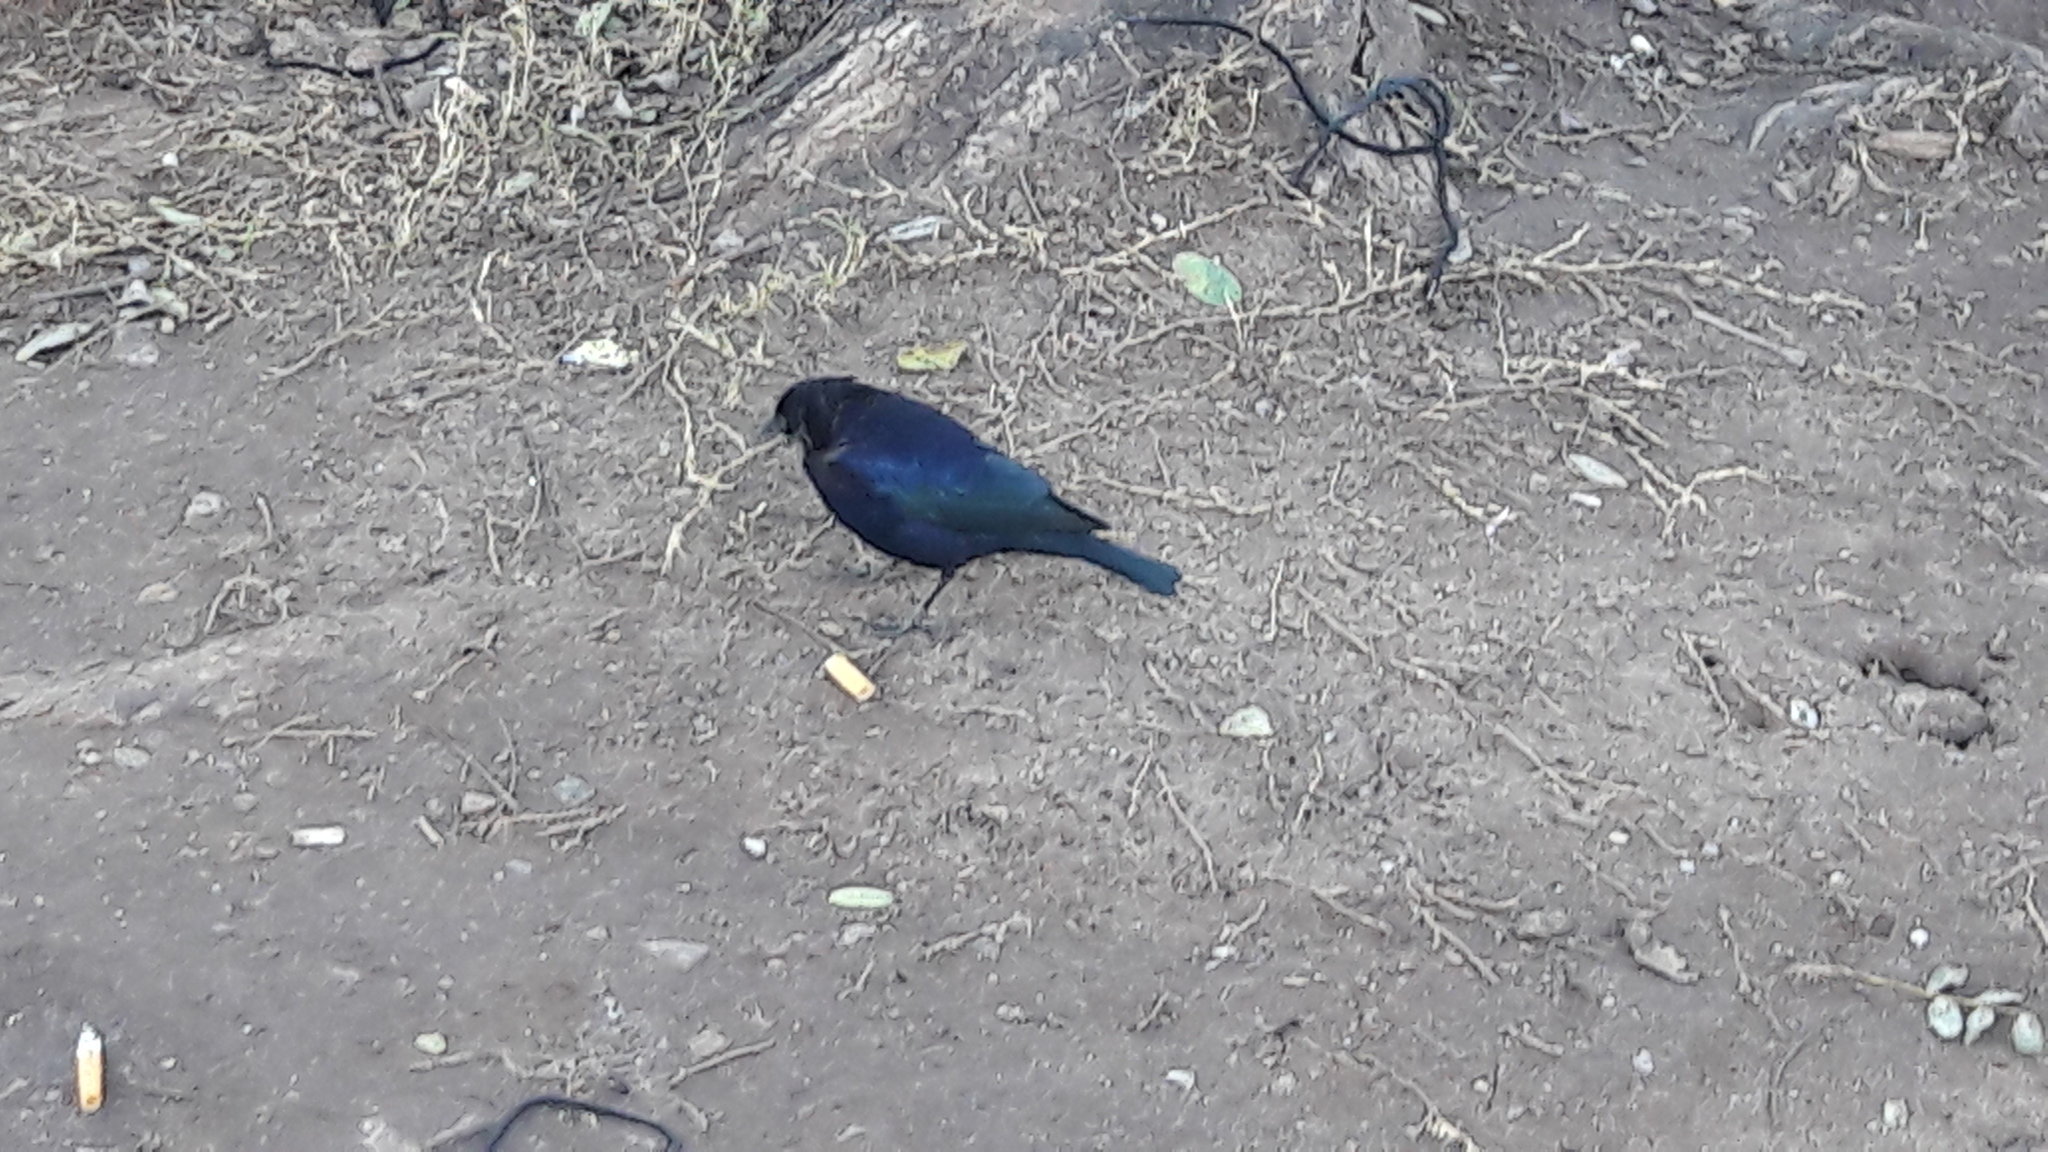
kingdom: Animalia
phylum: Chordata
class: Aves
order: Passeriformes
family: Icteridae
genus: Molothrus
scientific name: Molothrus bonariensis
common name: Shiny cowbird
